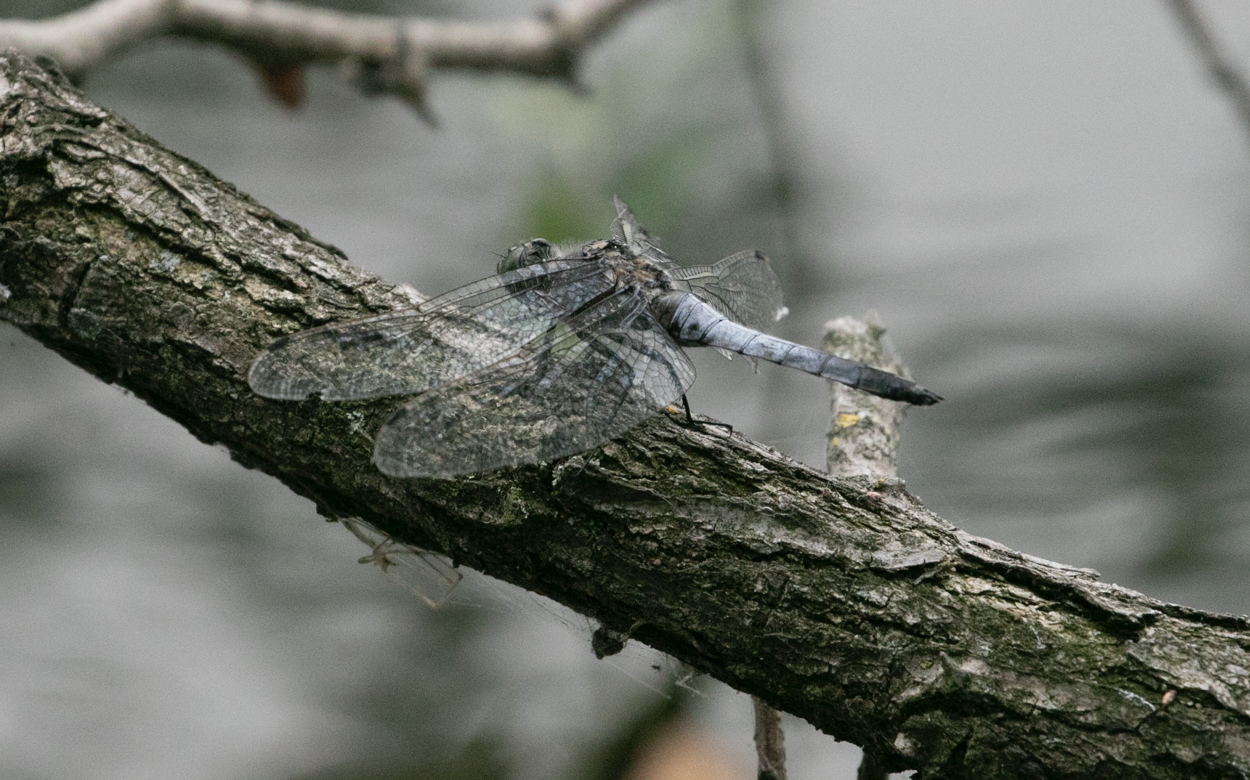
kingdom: Animalia
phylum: Arthropoda
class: Insecta
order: Odonata
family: Libellulidae
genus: Orthetrum
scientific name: Orthetrum cancellatum
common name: Black-tailed skimmer
